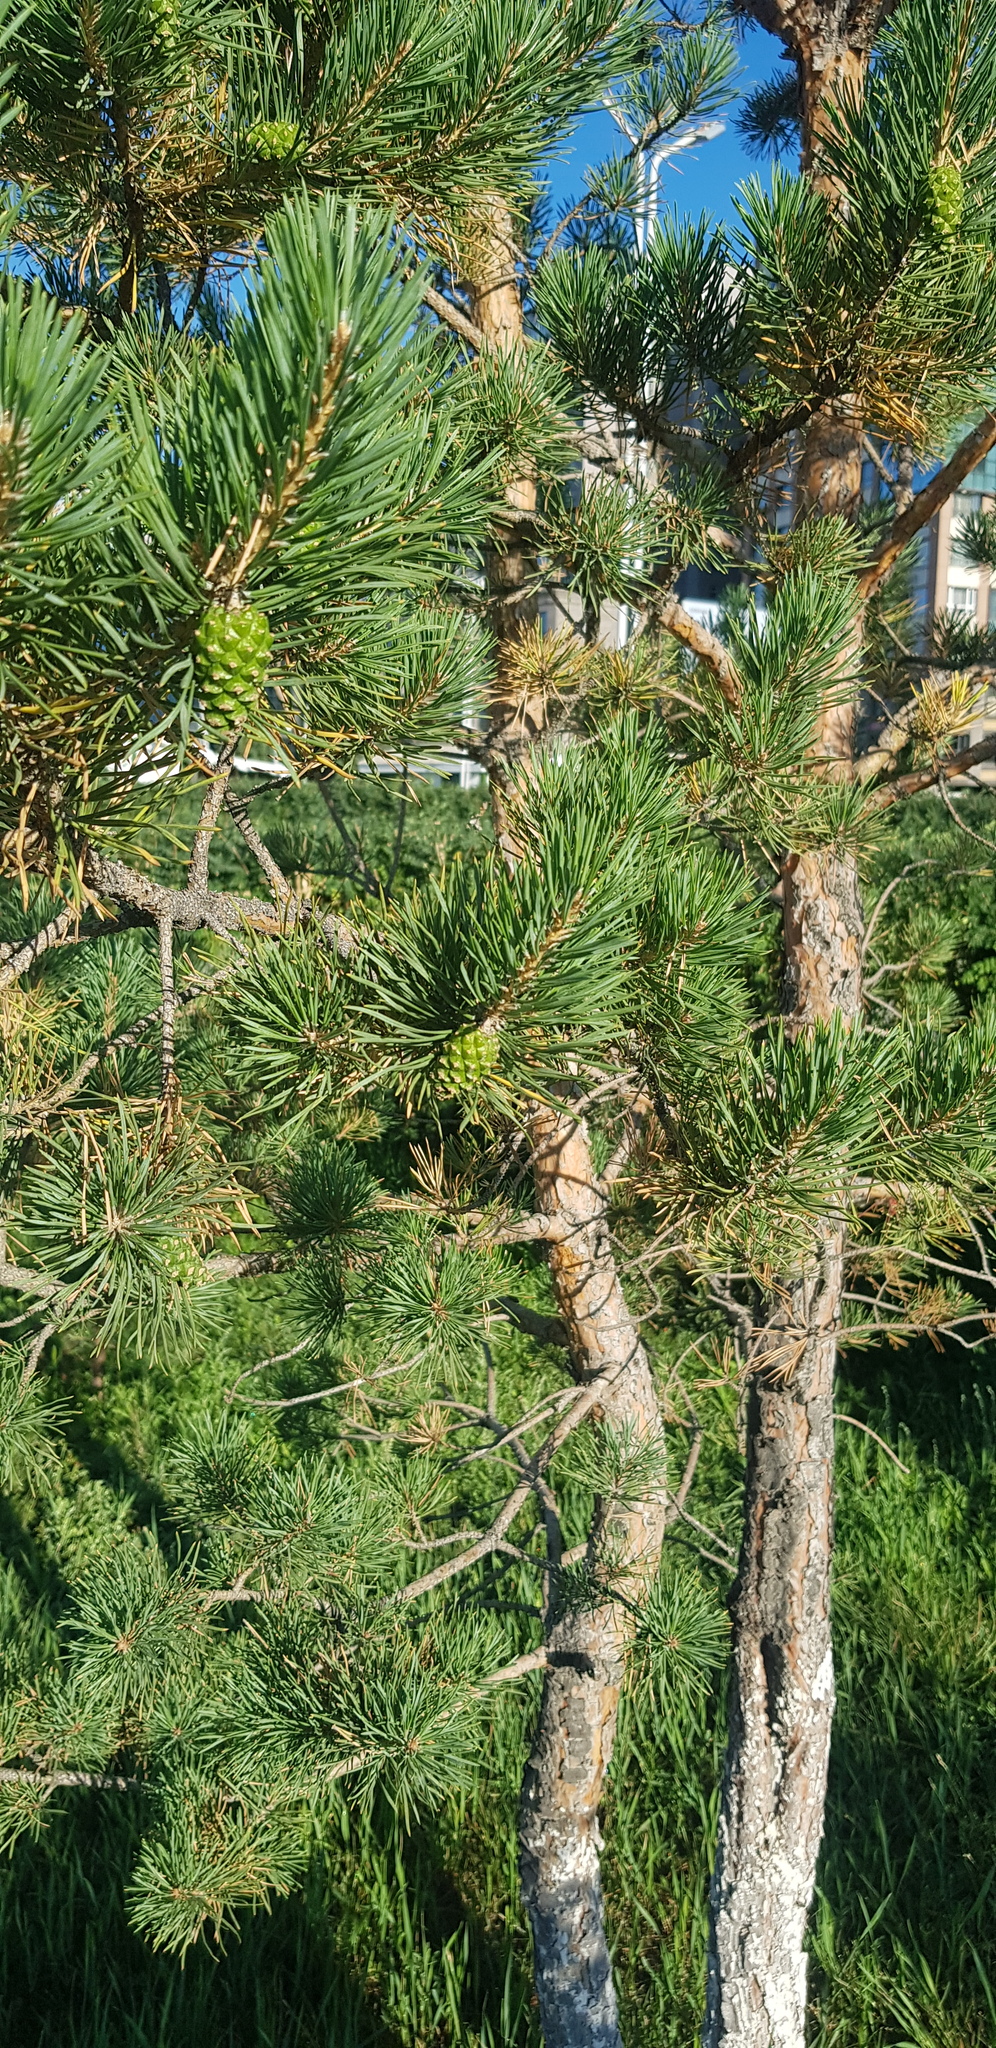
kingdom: Plantae
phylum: Tracheophyta
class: Pinopsida
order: Pinales
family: Pinaceae
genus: Pinus
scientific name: Pinus sylvestris
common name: Scots pine
